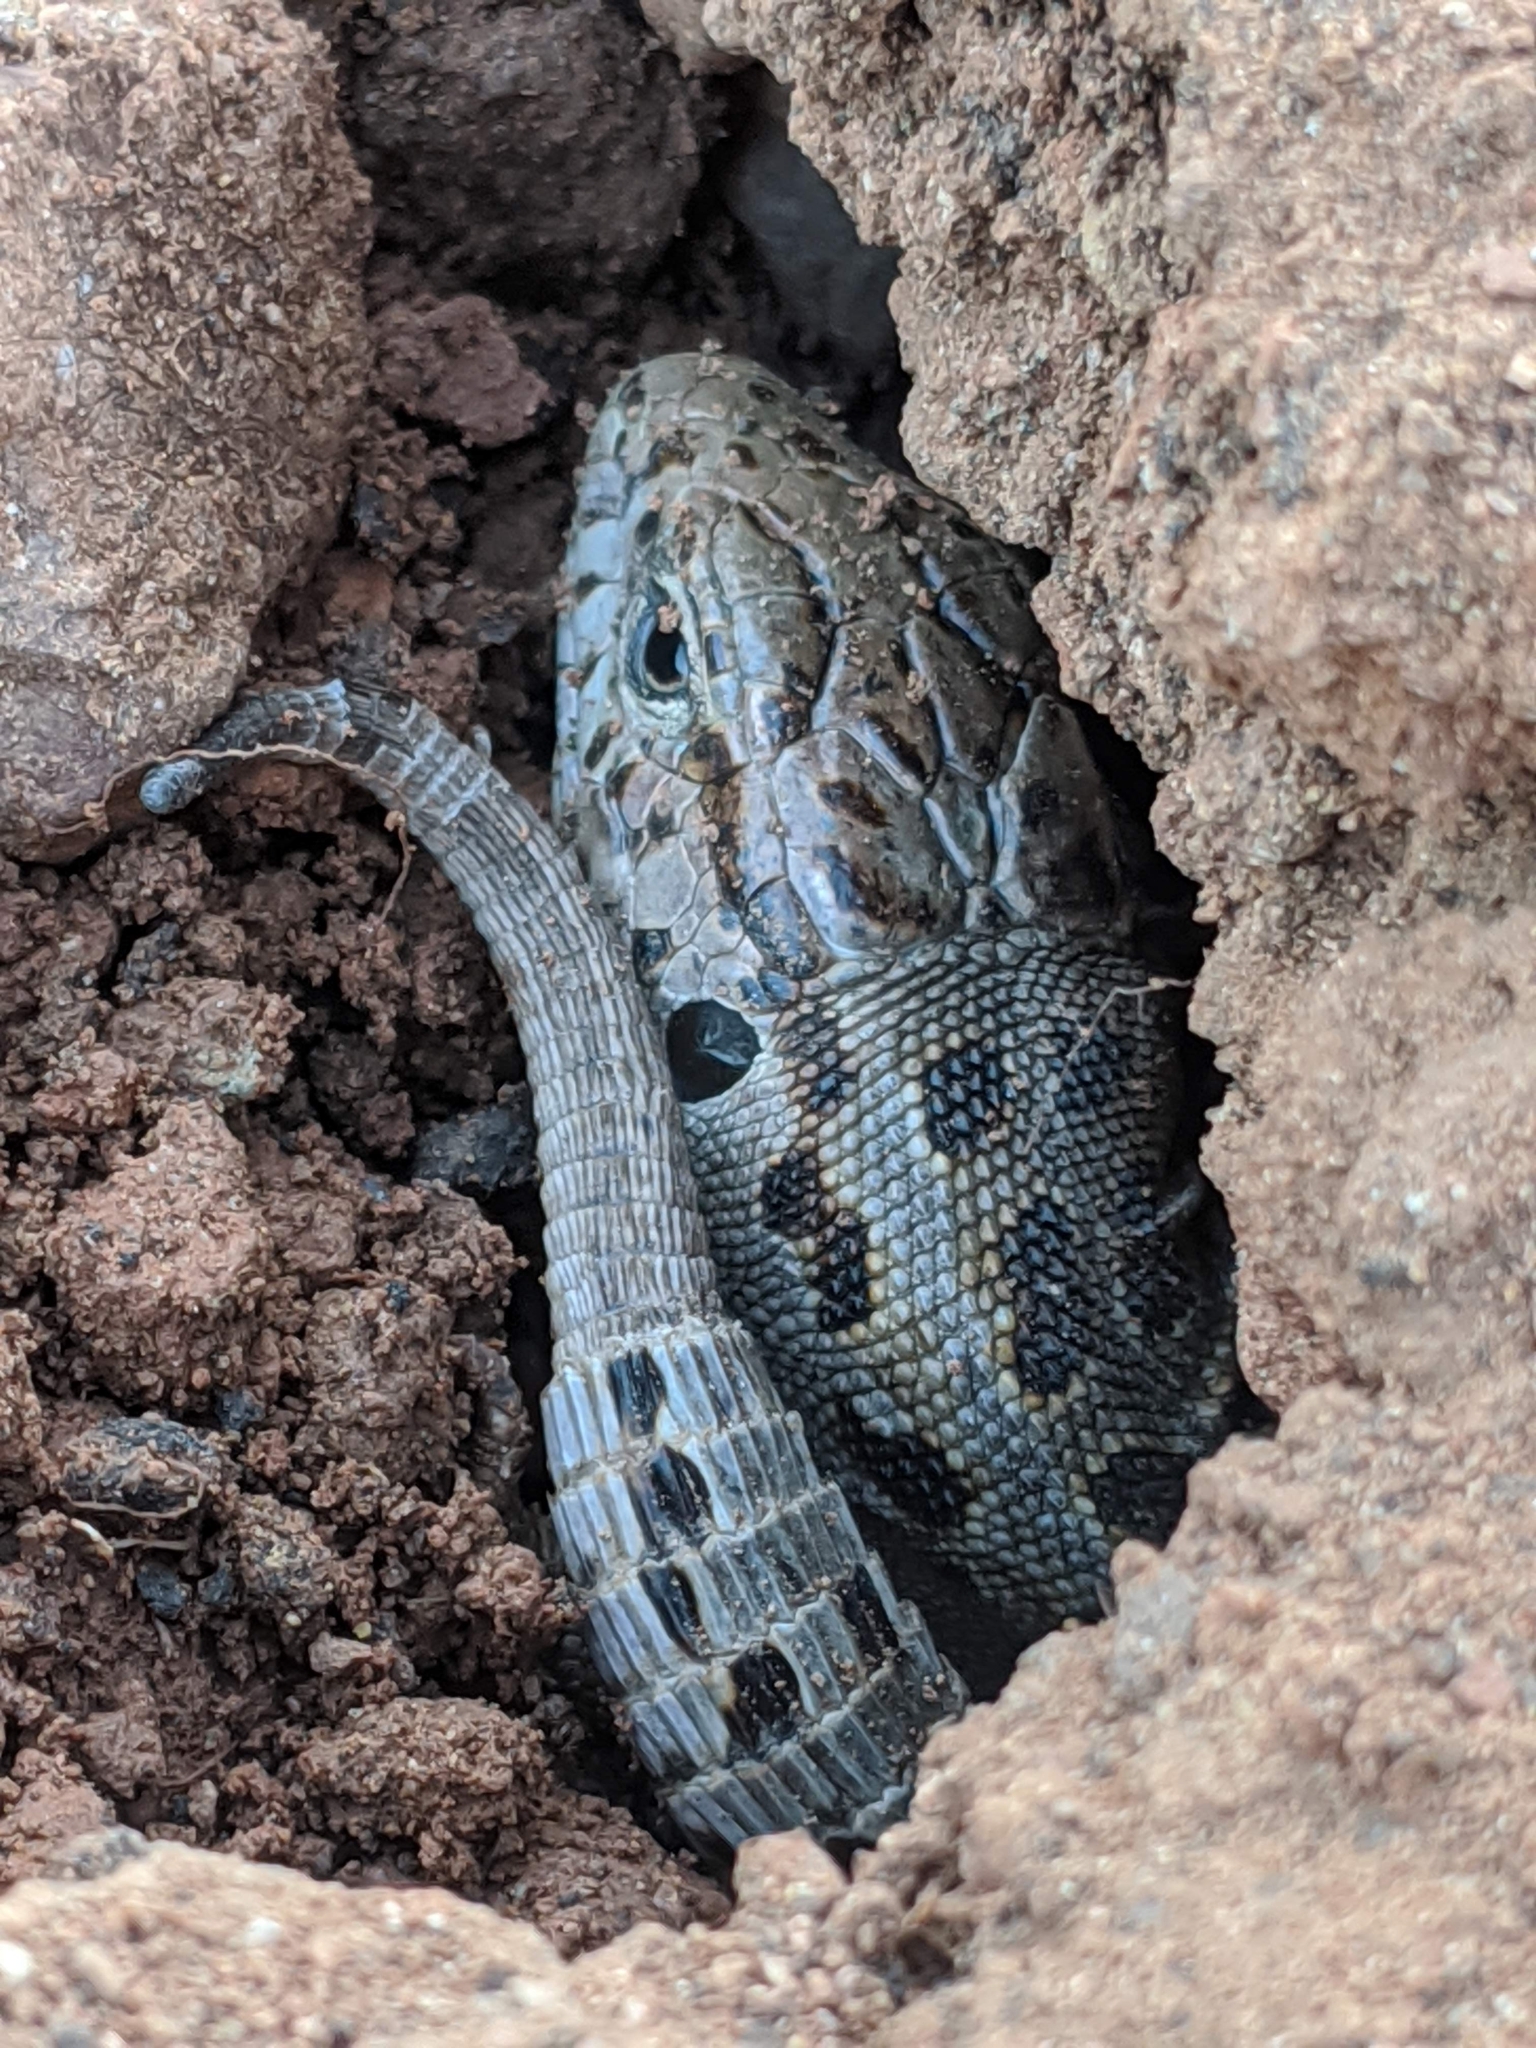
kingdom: Animalia
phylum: Chordata
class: Squamata
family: Lacertidae
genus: Lacerta
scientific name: Lacerta agilis
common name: Sand lizard
